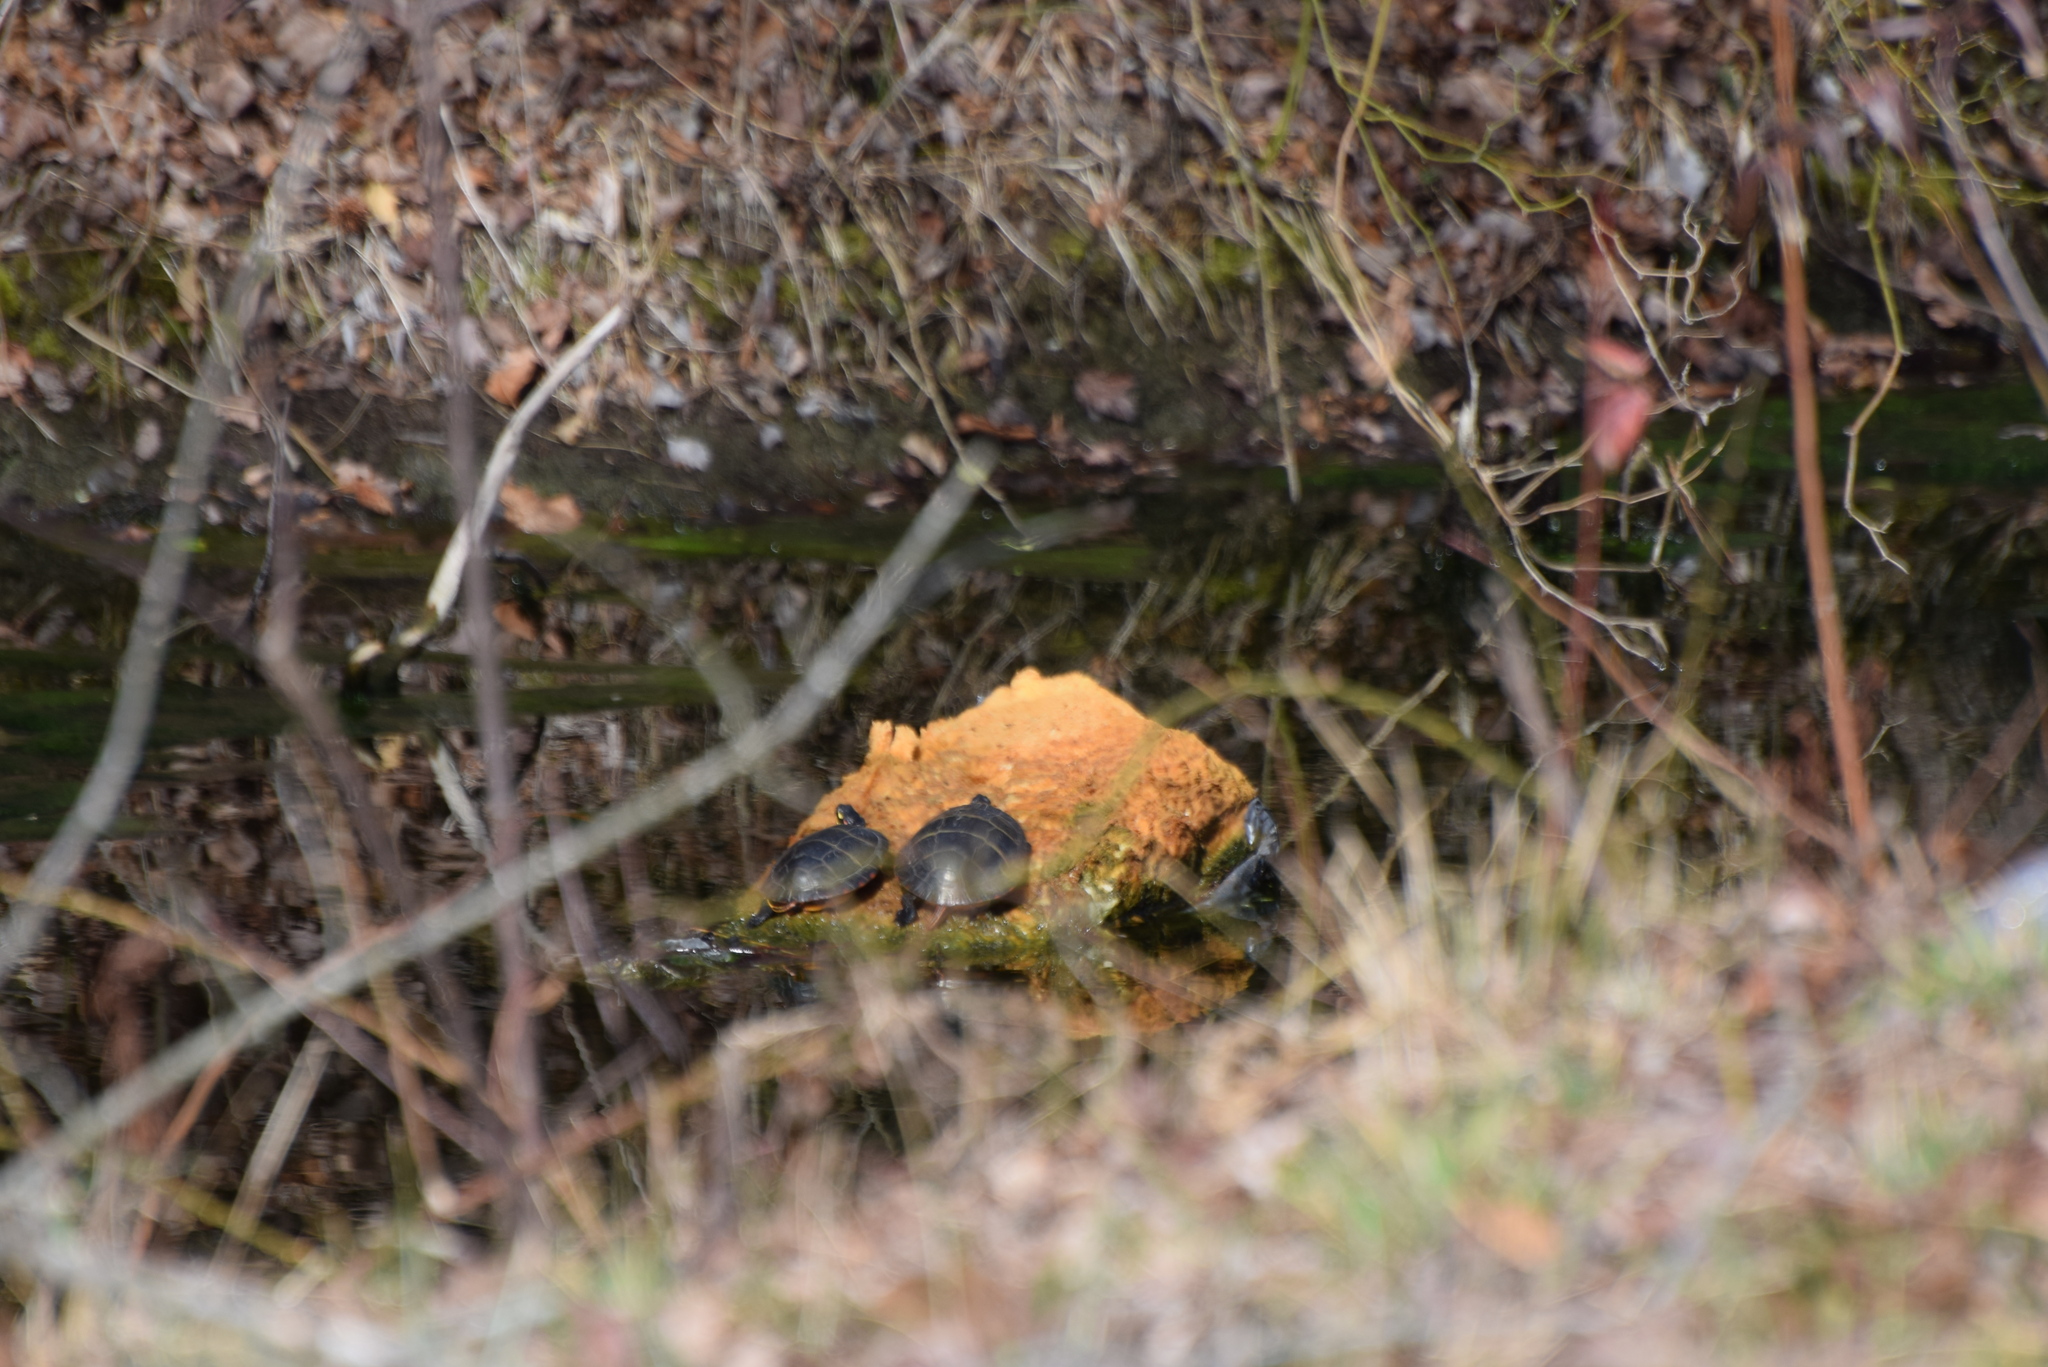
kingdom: Animalia
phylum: Chordata
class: Testudines
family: Emydidae
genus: Chrysemys
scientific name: Chrysemys picta
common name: Painted turtle
